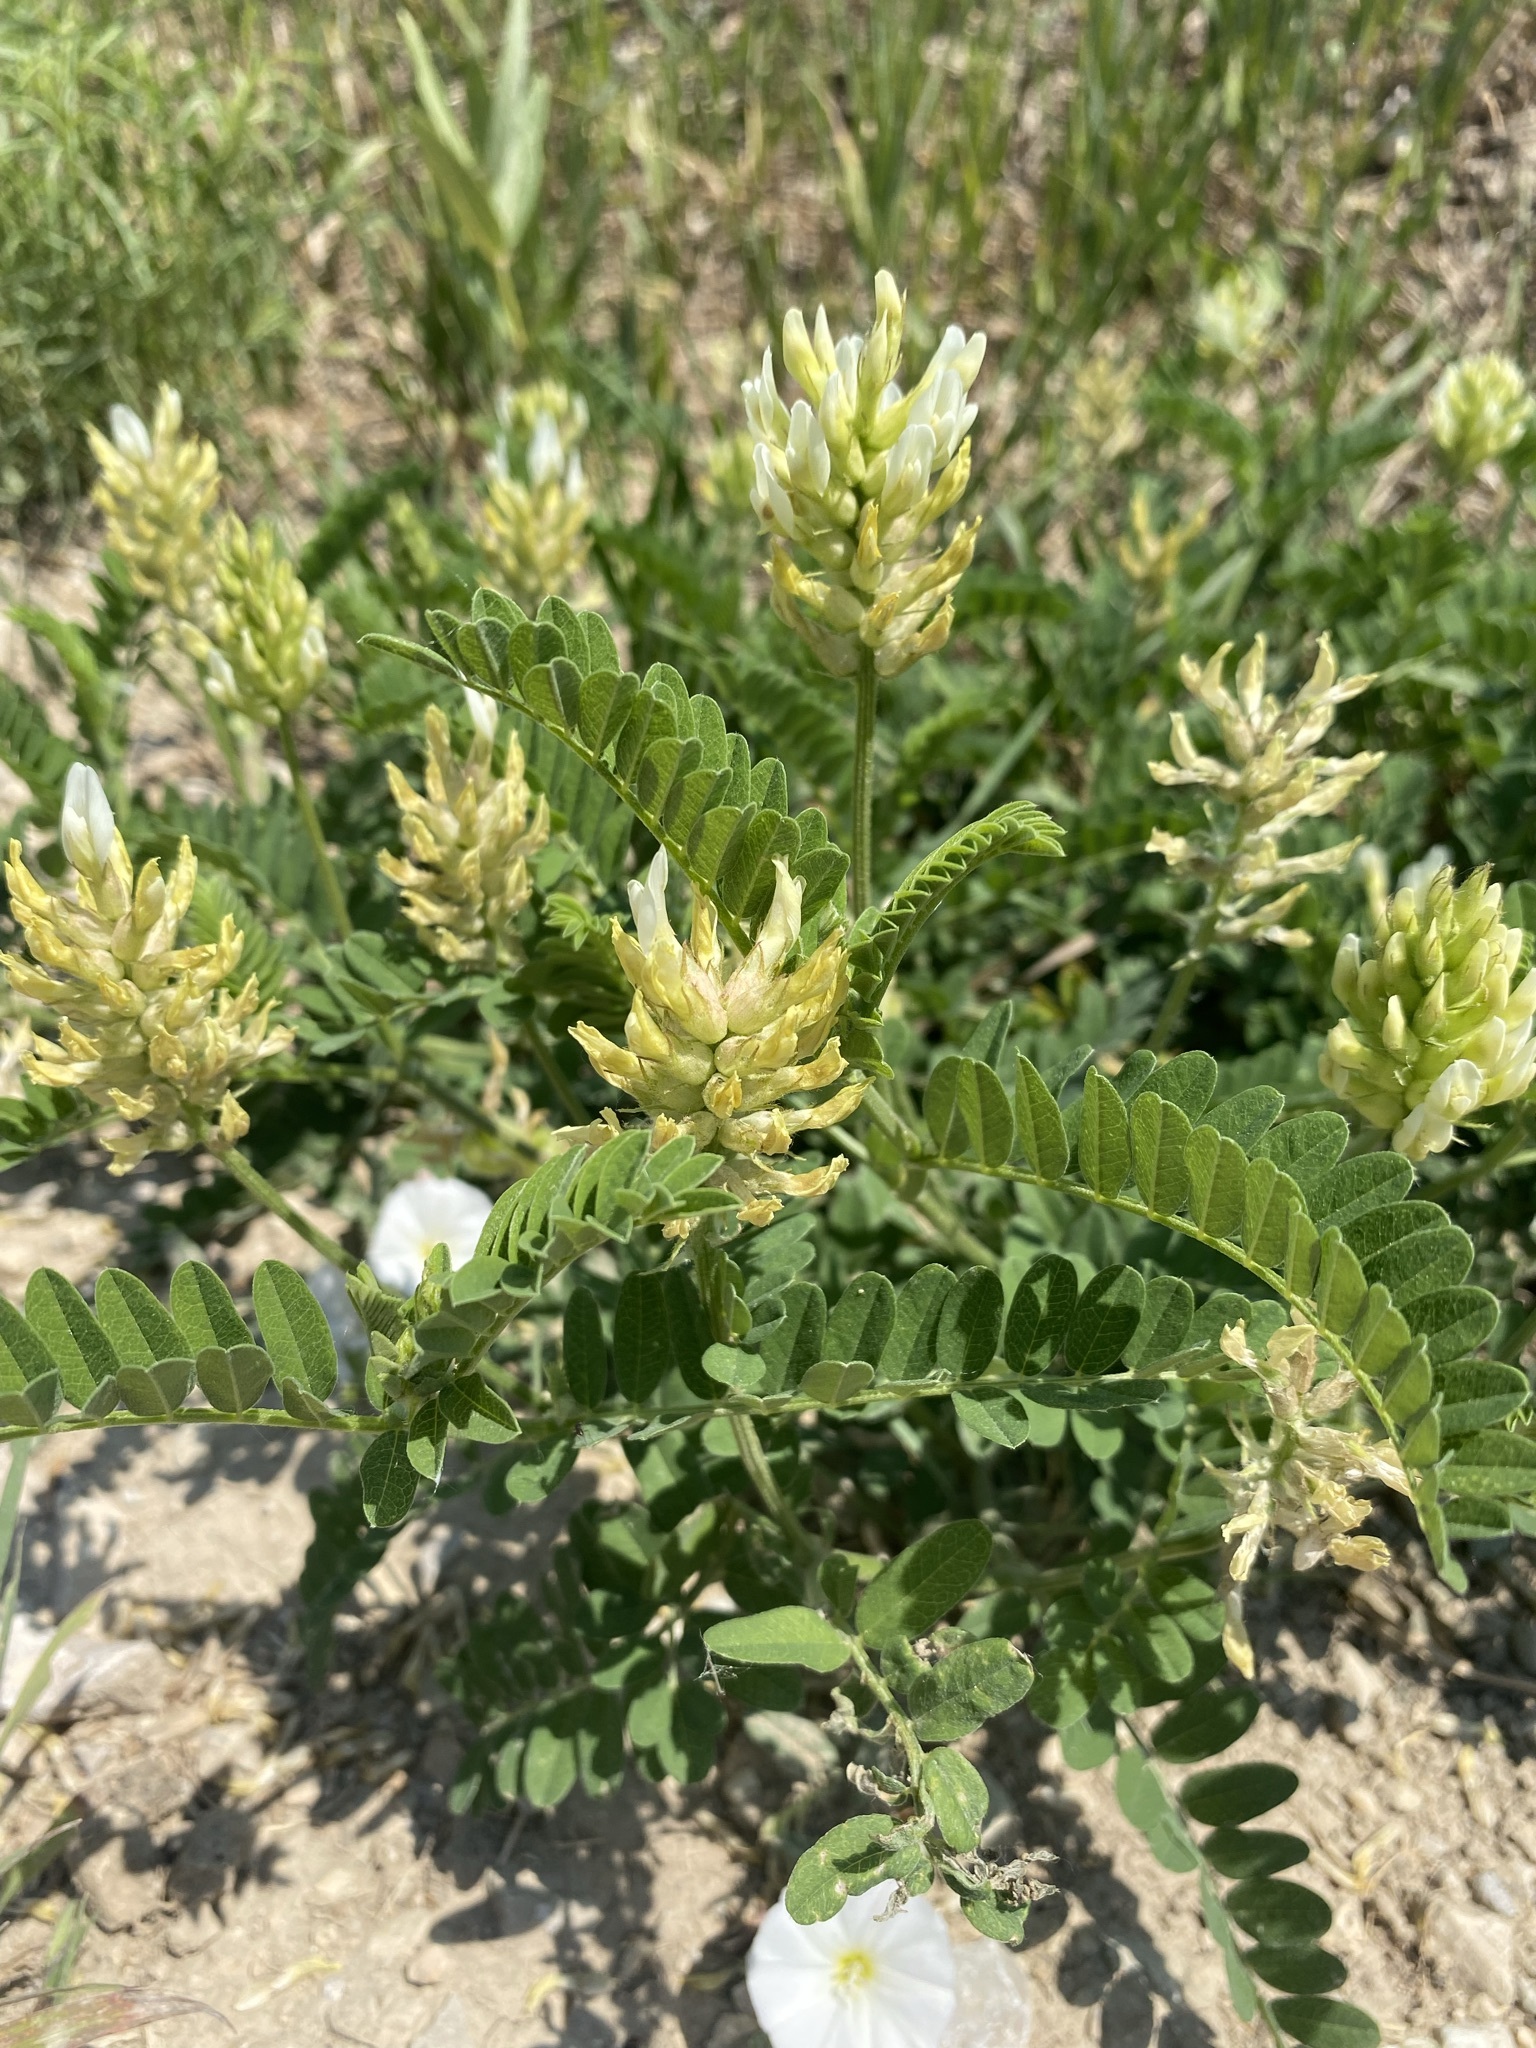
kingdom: Plantae
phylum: Tracheophyta
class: Magnoliopsida
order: Fabales
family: Fabaceae
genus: Astragalus
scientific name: Astragalus cicer
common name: Chick-pea milk-vetch
